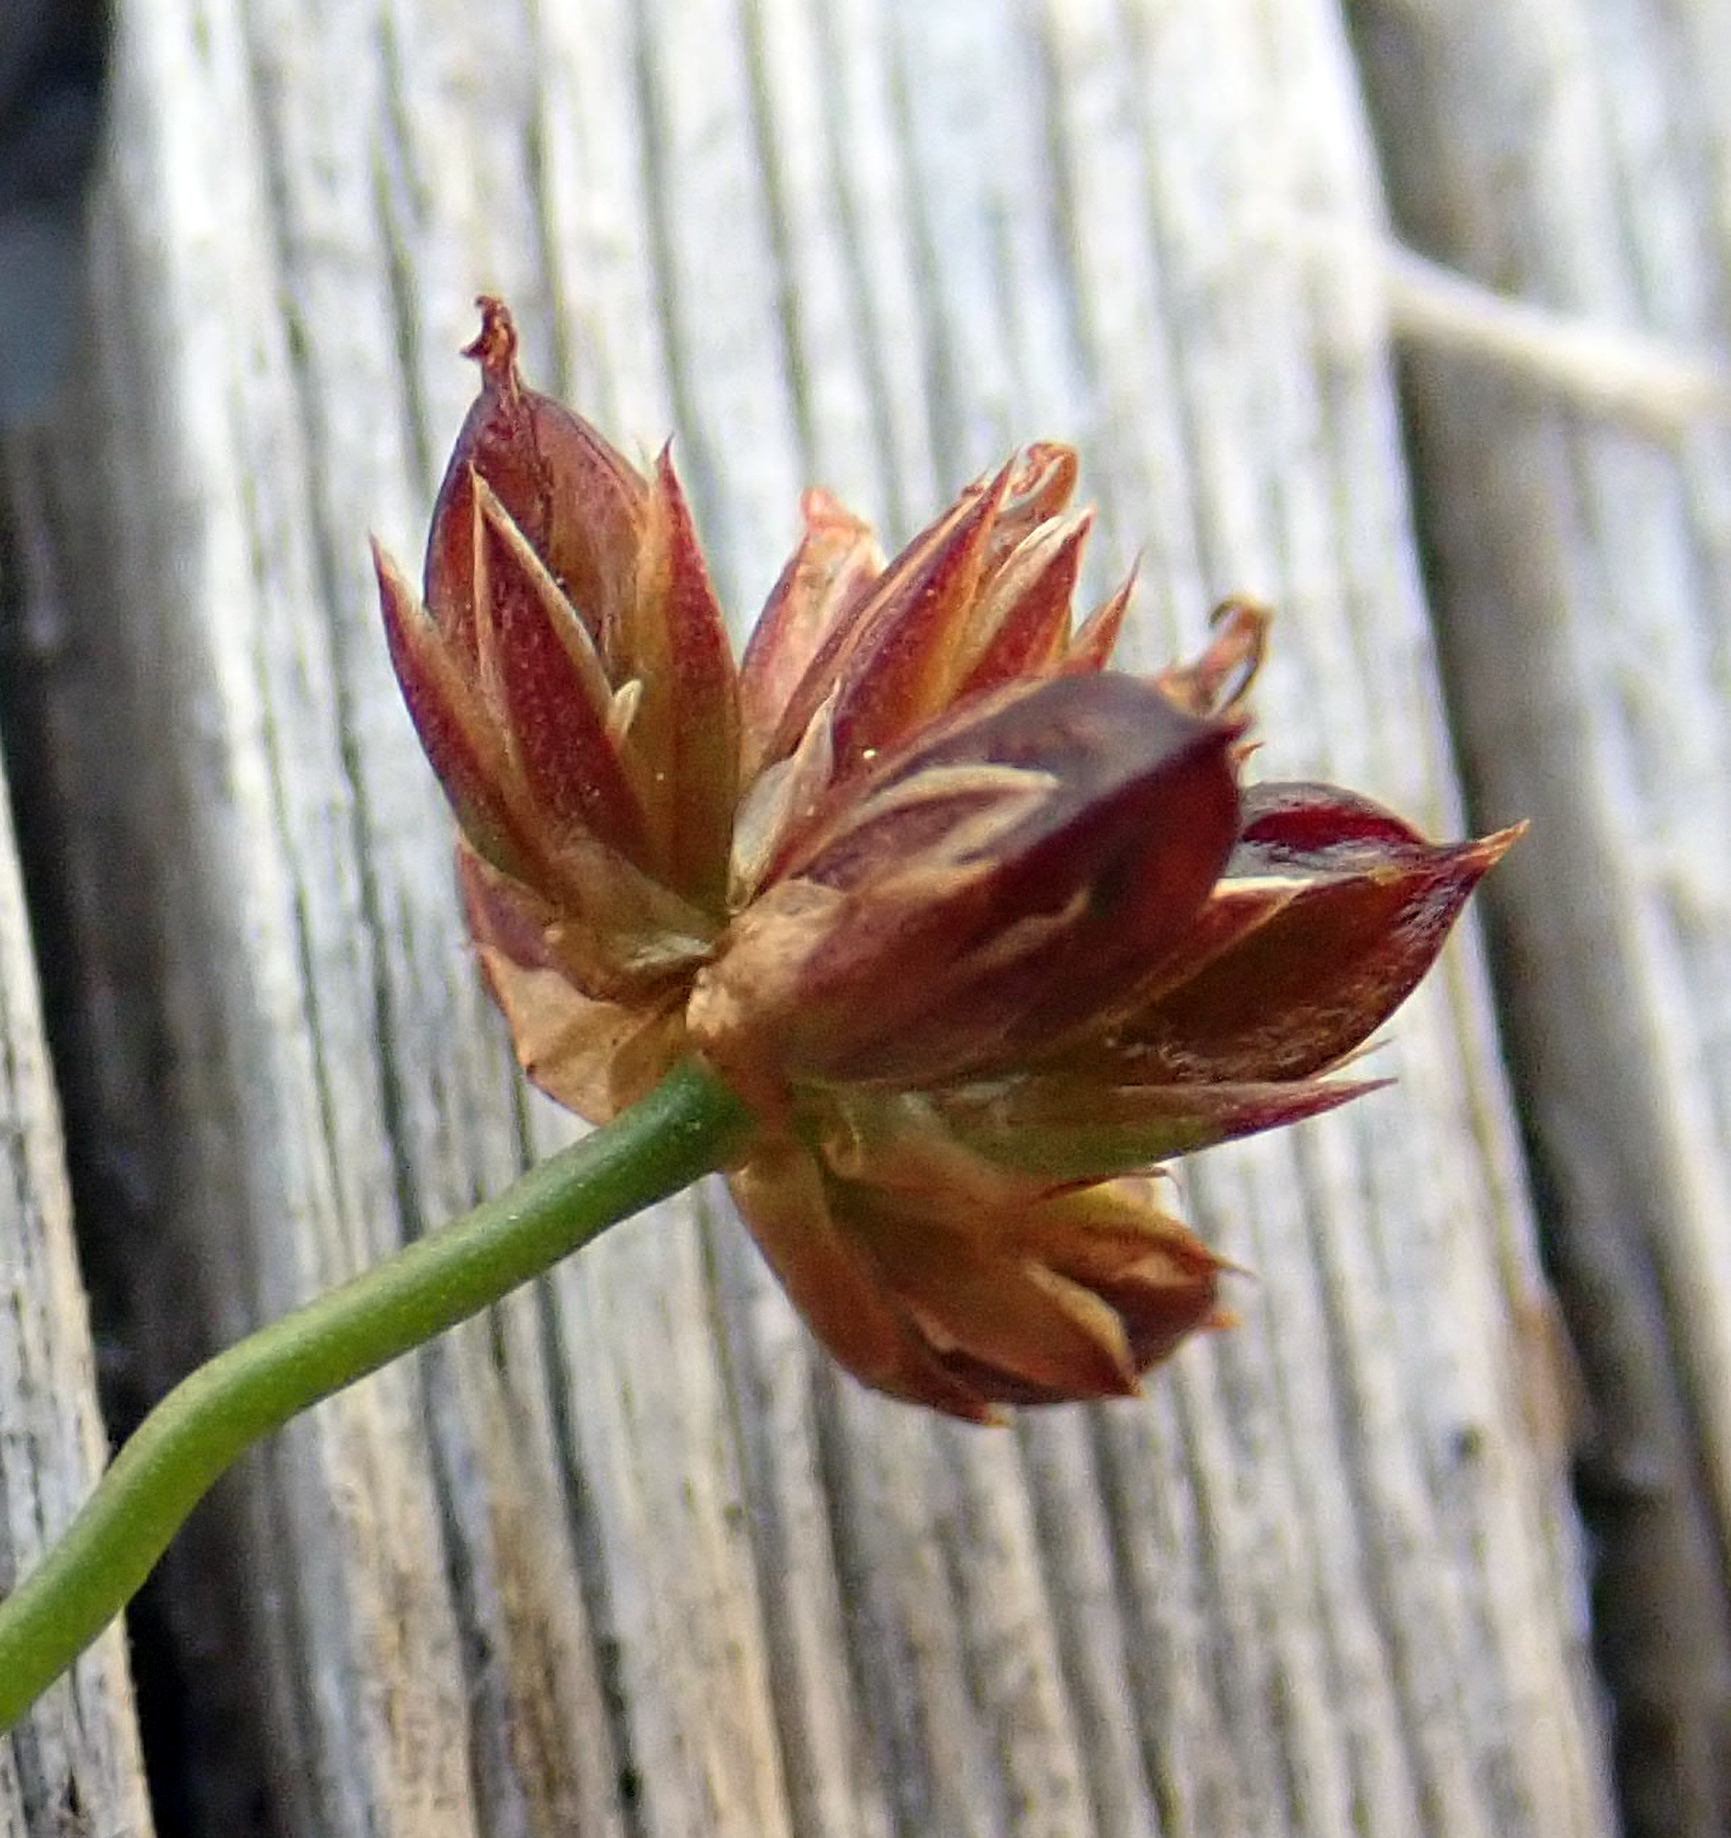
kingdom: Plantae
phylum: Tracheophyta
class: Liliopsida
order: Poales
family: Juncaceae
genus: Juncus
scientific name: Juncus articulatus
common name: Jointed rush
